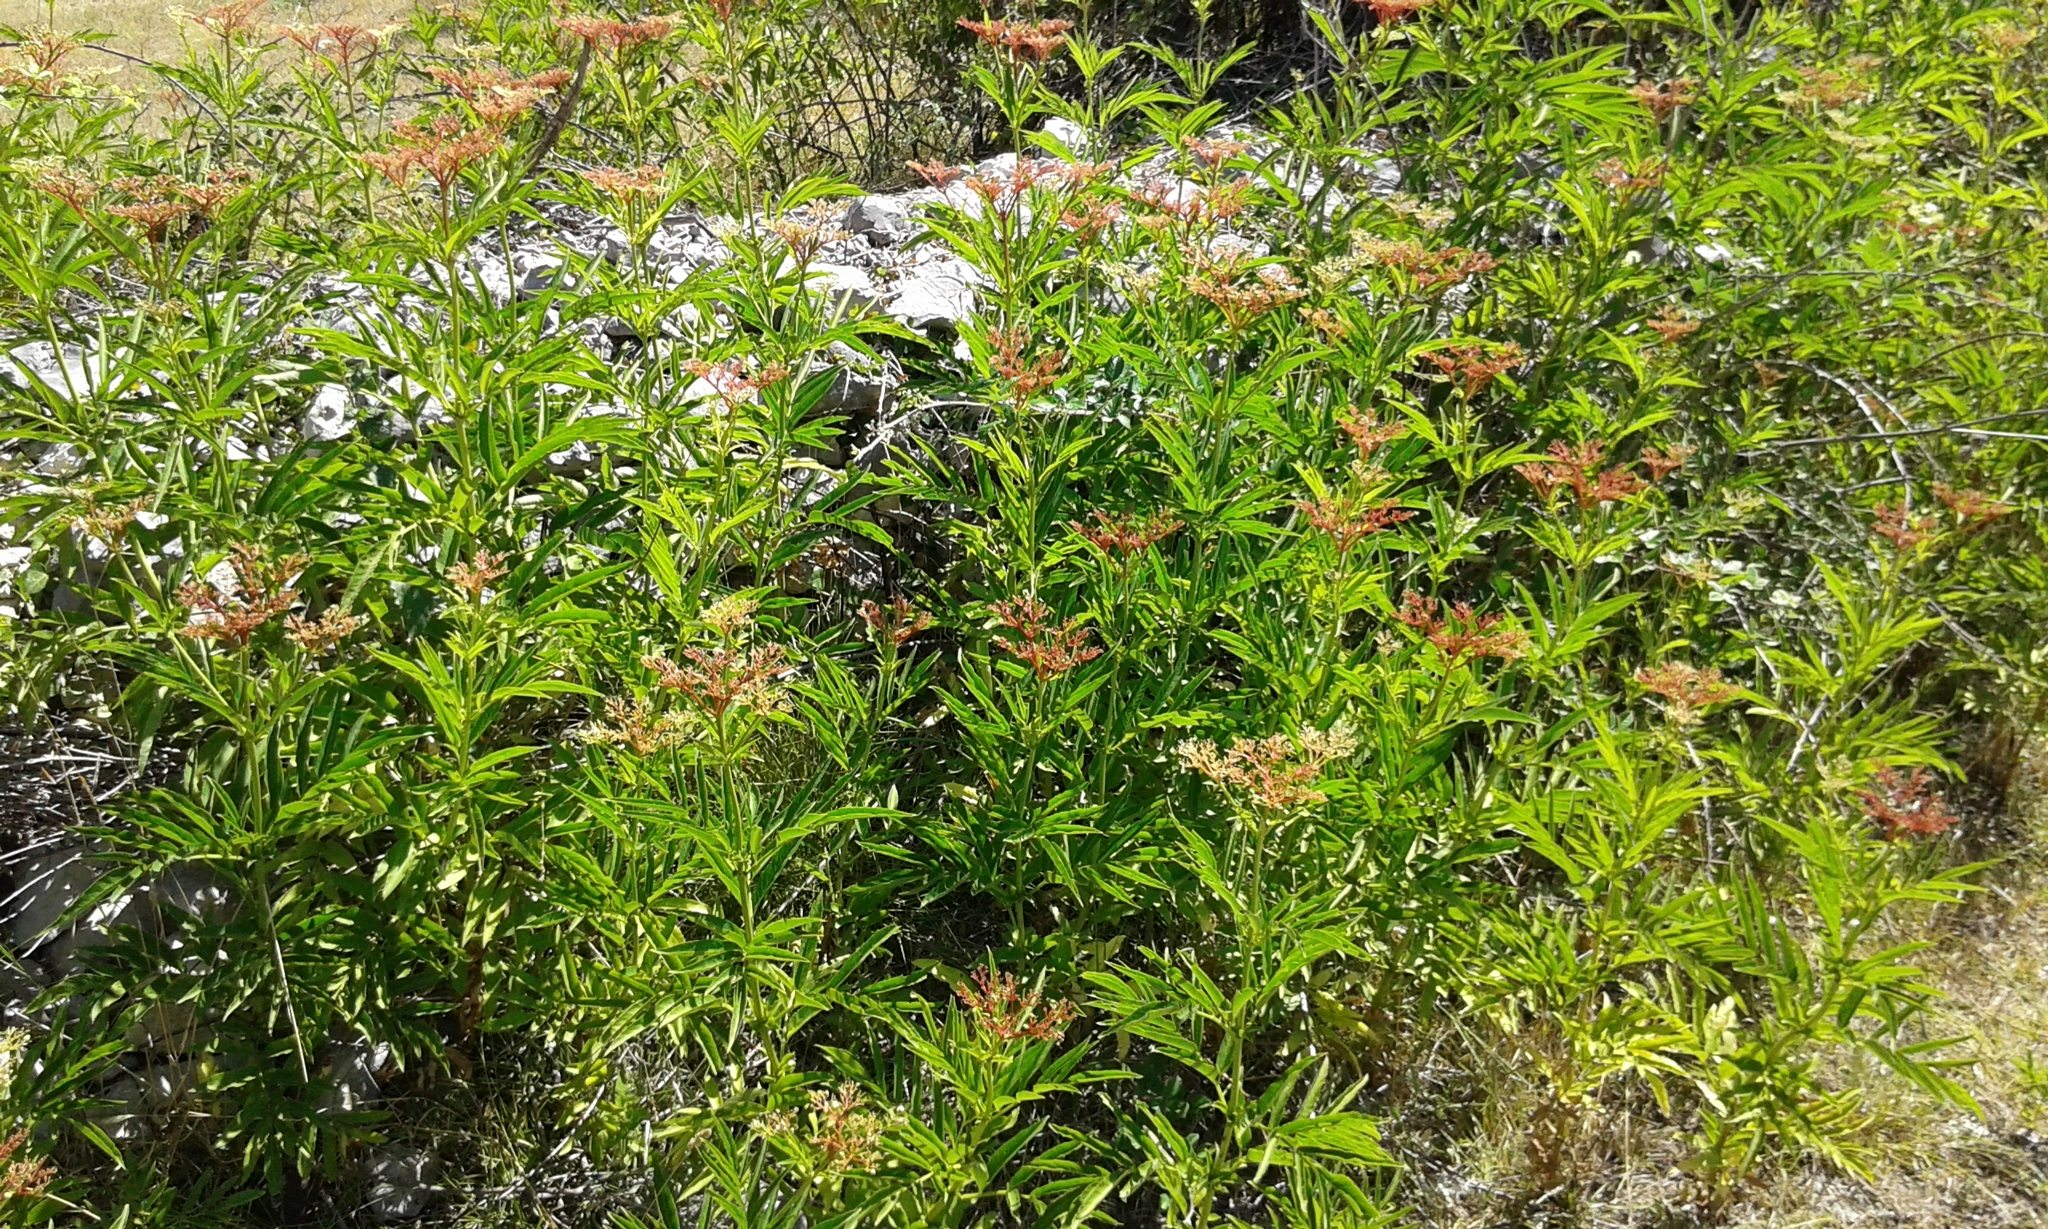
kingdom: Plantae
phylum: Tracheophyta
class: Magnoliopsida
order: Dipsacales
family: Viburnaceae
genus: Sambucus
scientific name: Sambucus ebulus
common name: Dwarf elder
